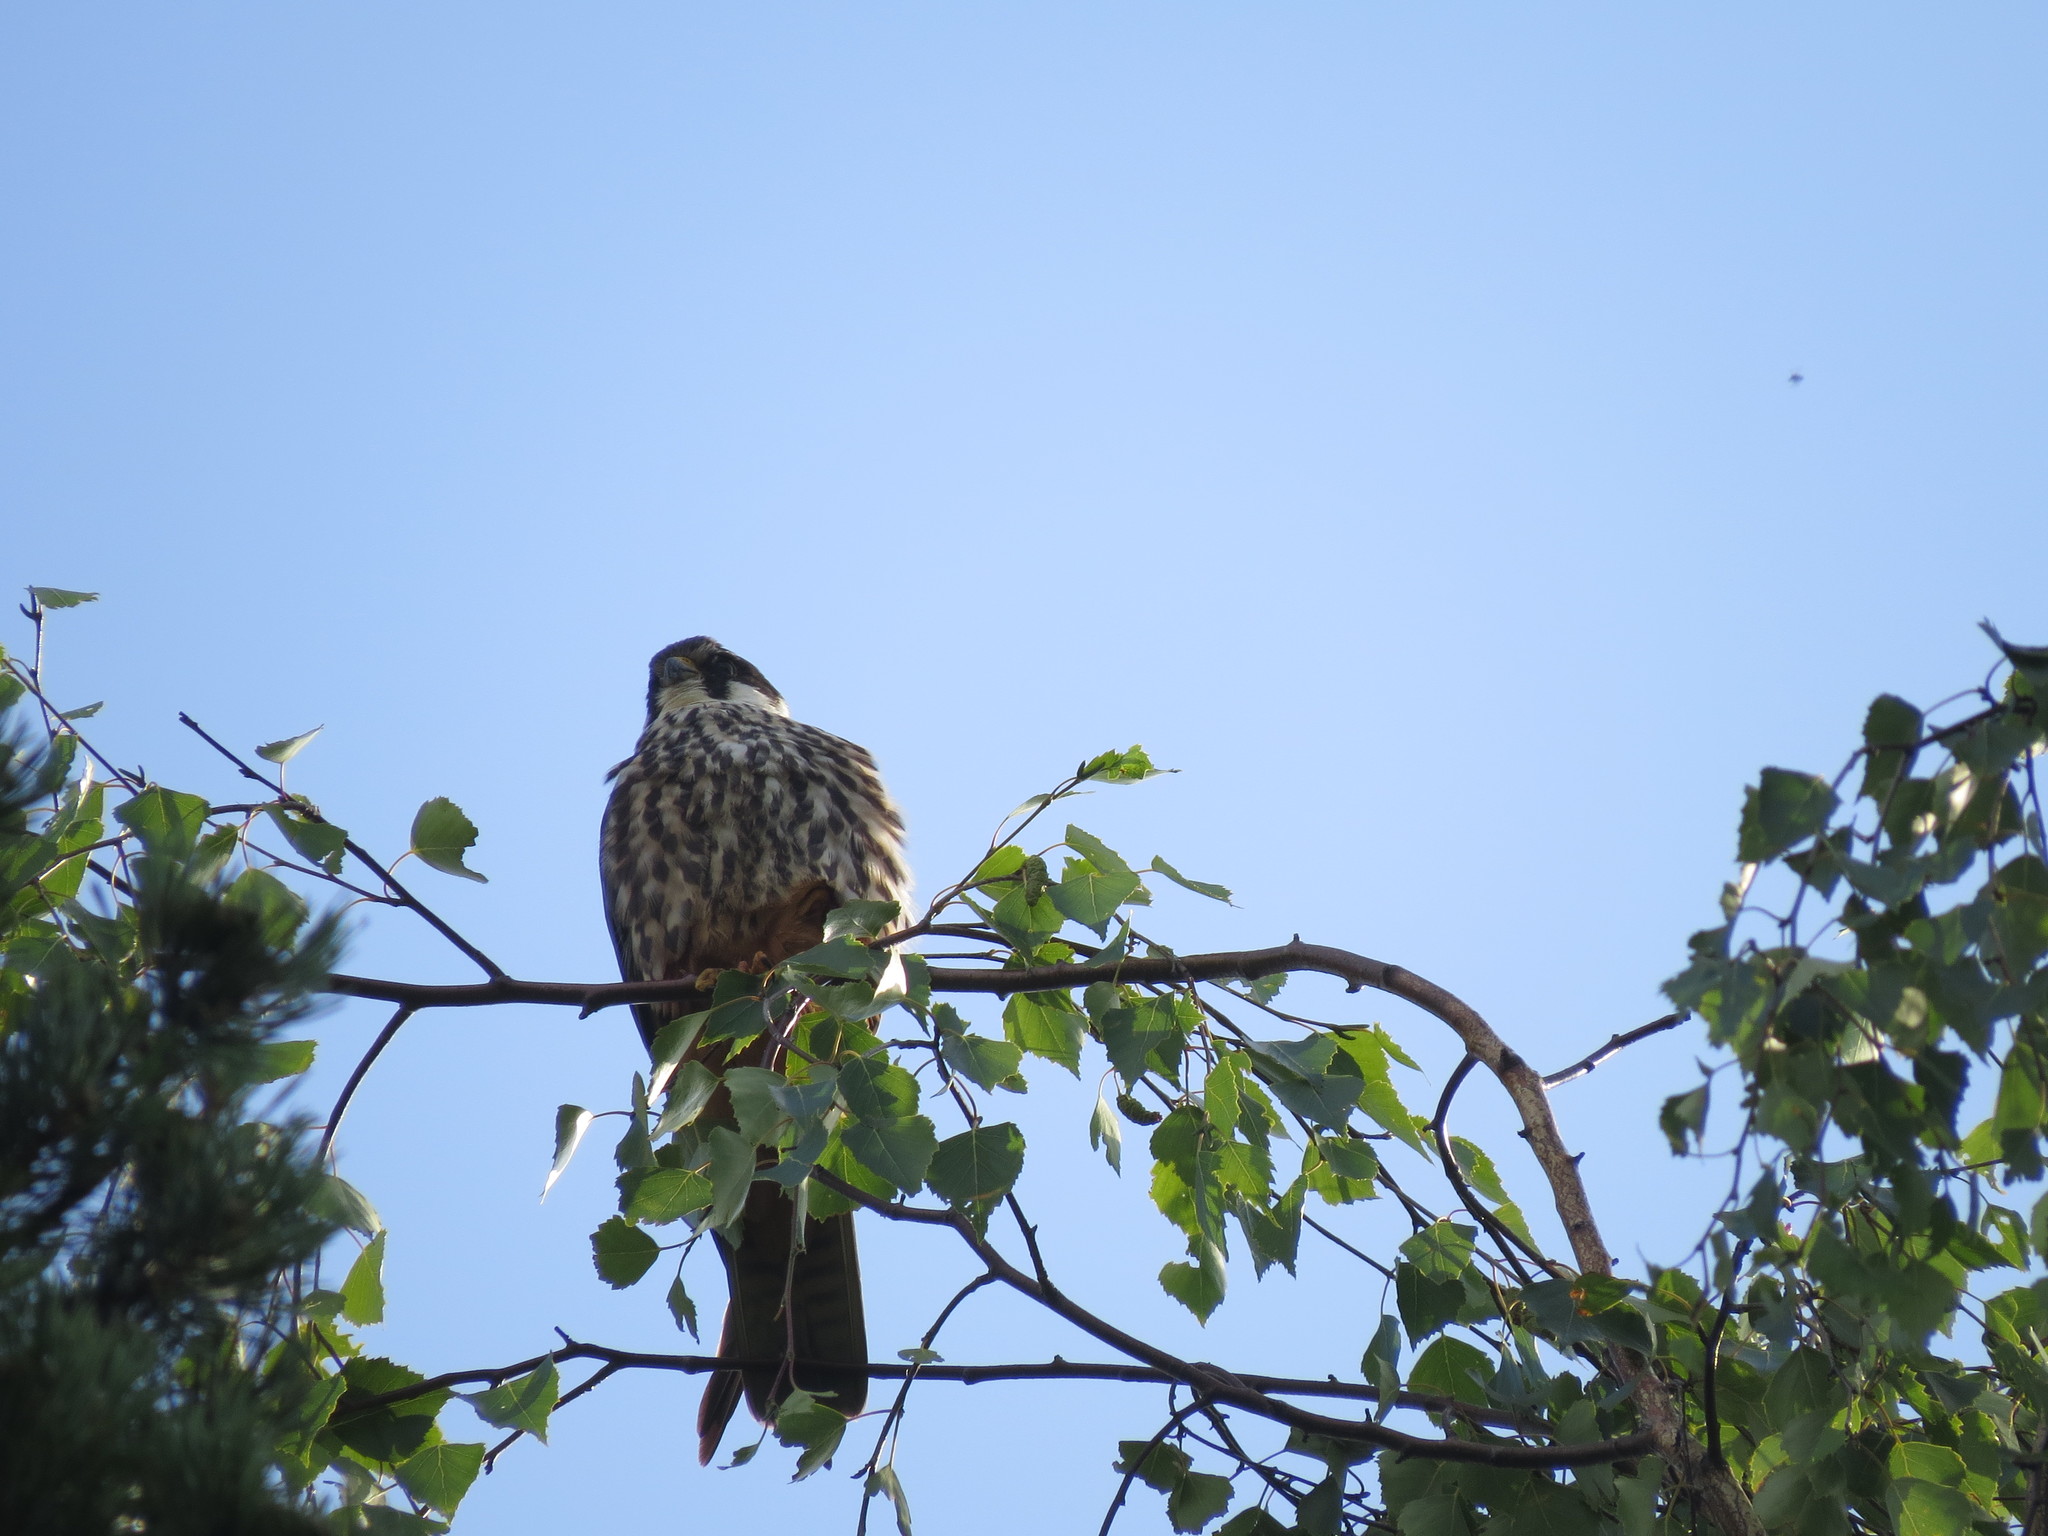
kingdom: Animalia
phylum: Chordata
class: Aves
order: Falconiformes
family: Falconidae
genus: Falco
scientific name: Falco subbuteo
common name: Eurasian hobby
